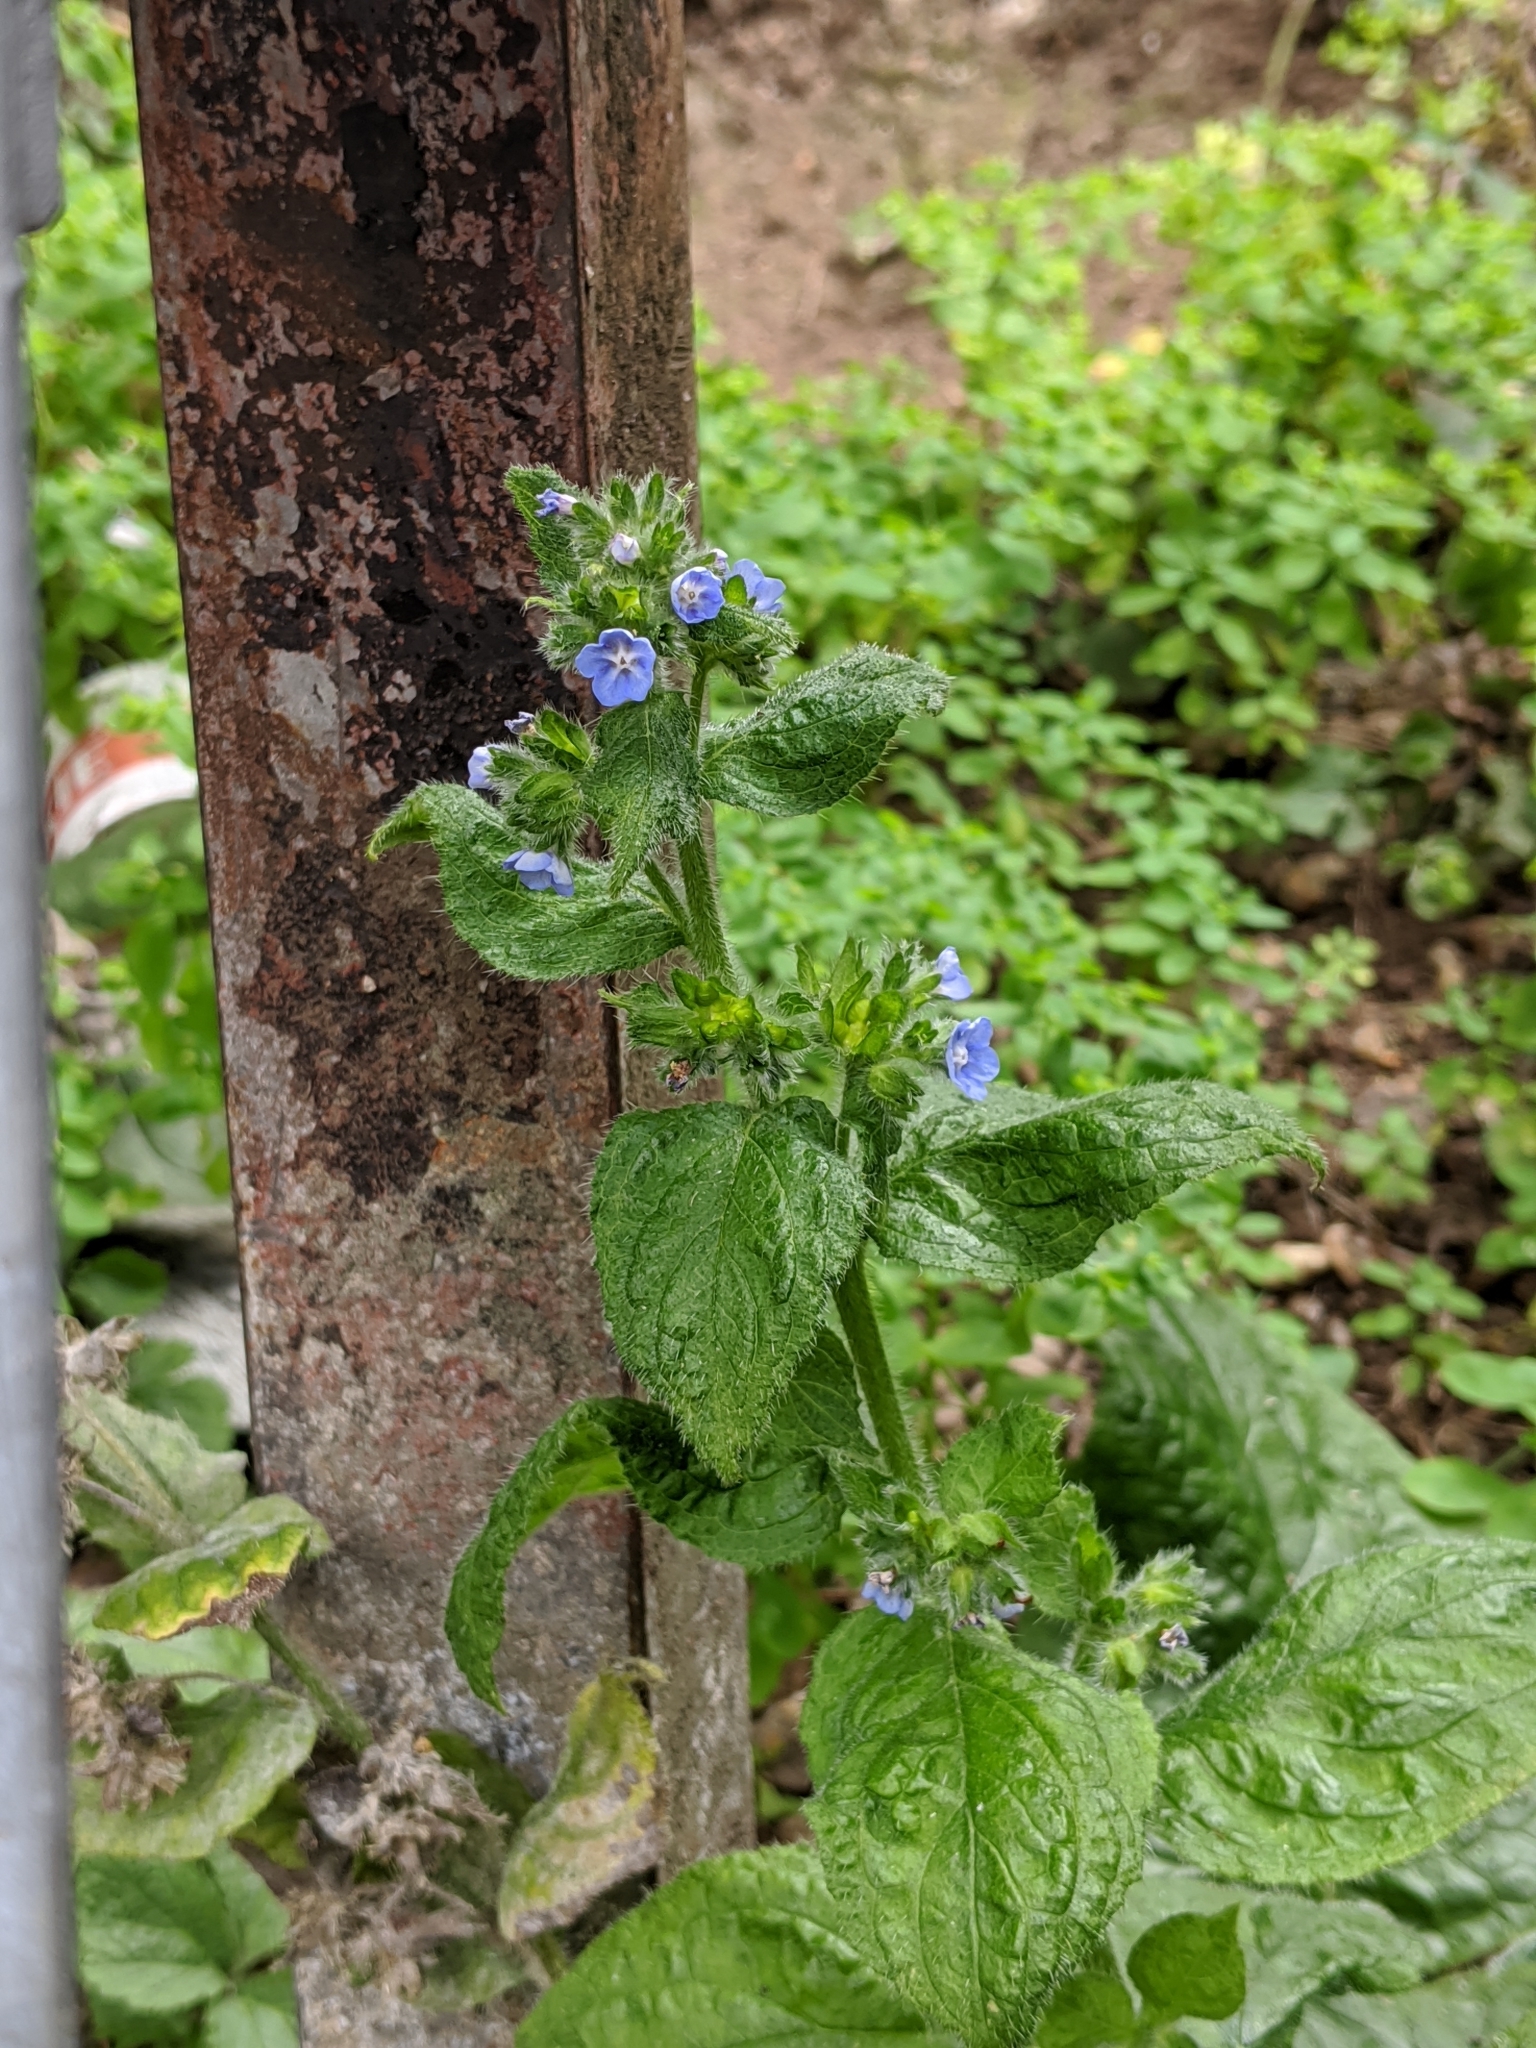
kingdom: Plantae
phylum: Tracheophyta
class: Magnoliopsida
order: Boraginales
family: Boraginaceae
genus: Pentaglottis
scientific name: Pentaglottis sempervirens
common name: Green alkanet
